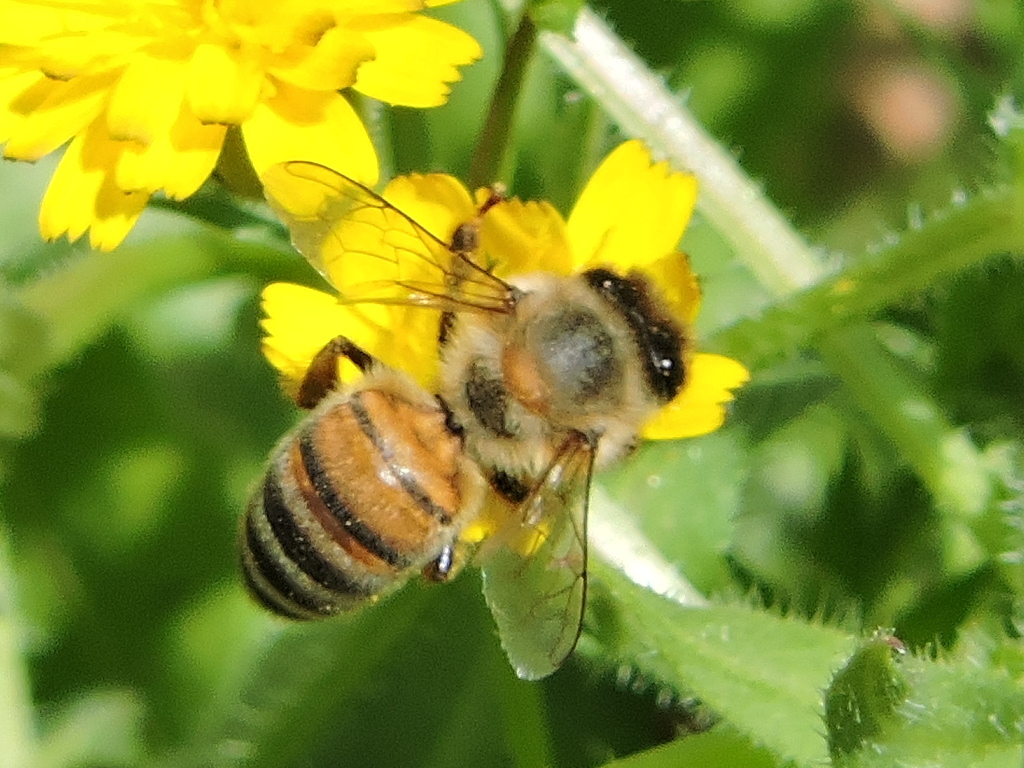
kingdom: Animalia
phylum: Arthropoda
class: Insecta
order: Hymenoptera
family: Apidae
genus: Apis
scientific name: Apis mellifera
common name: Honey bee
